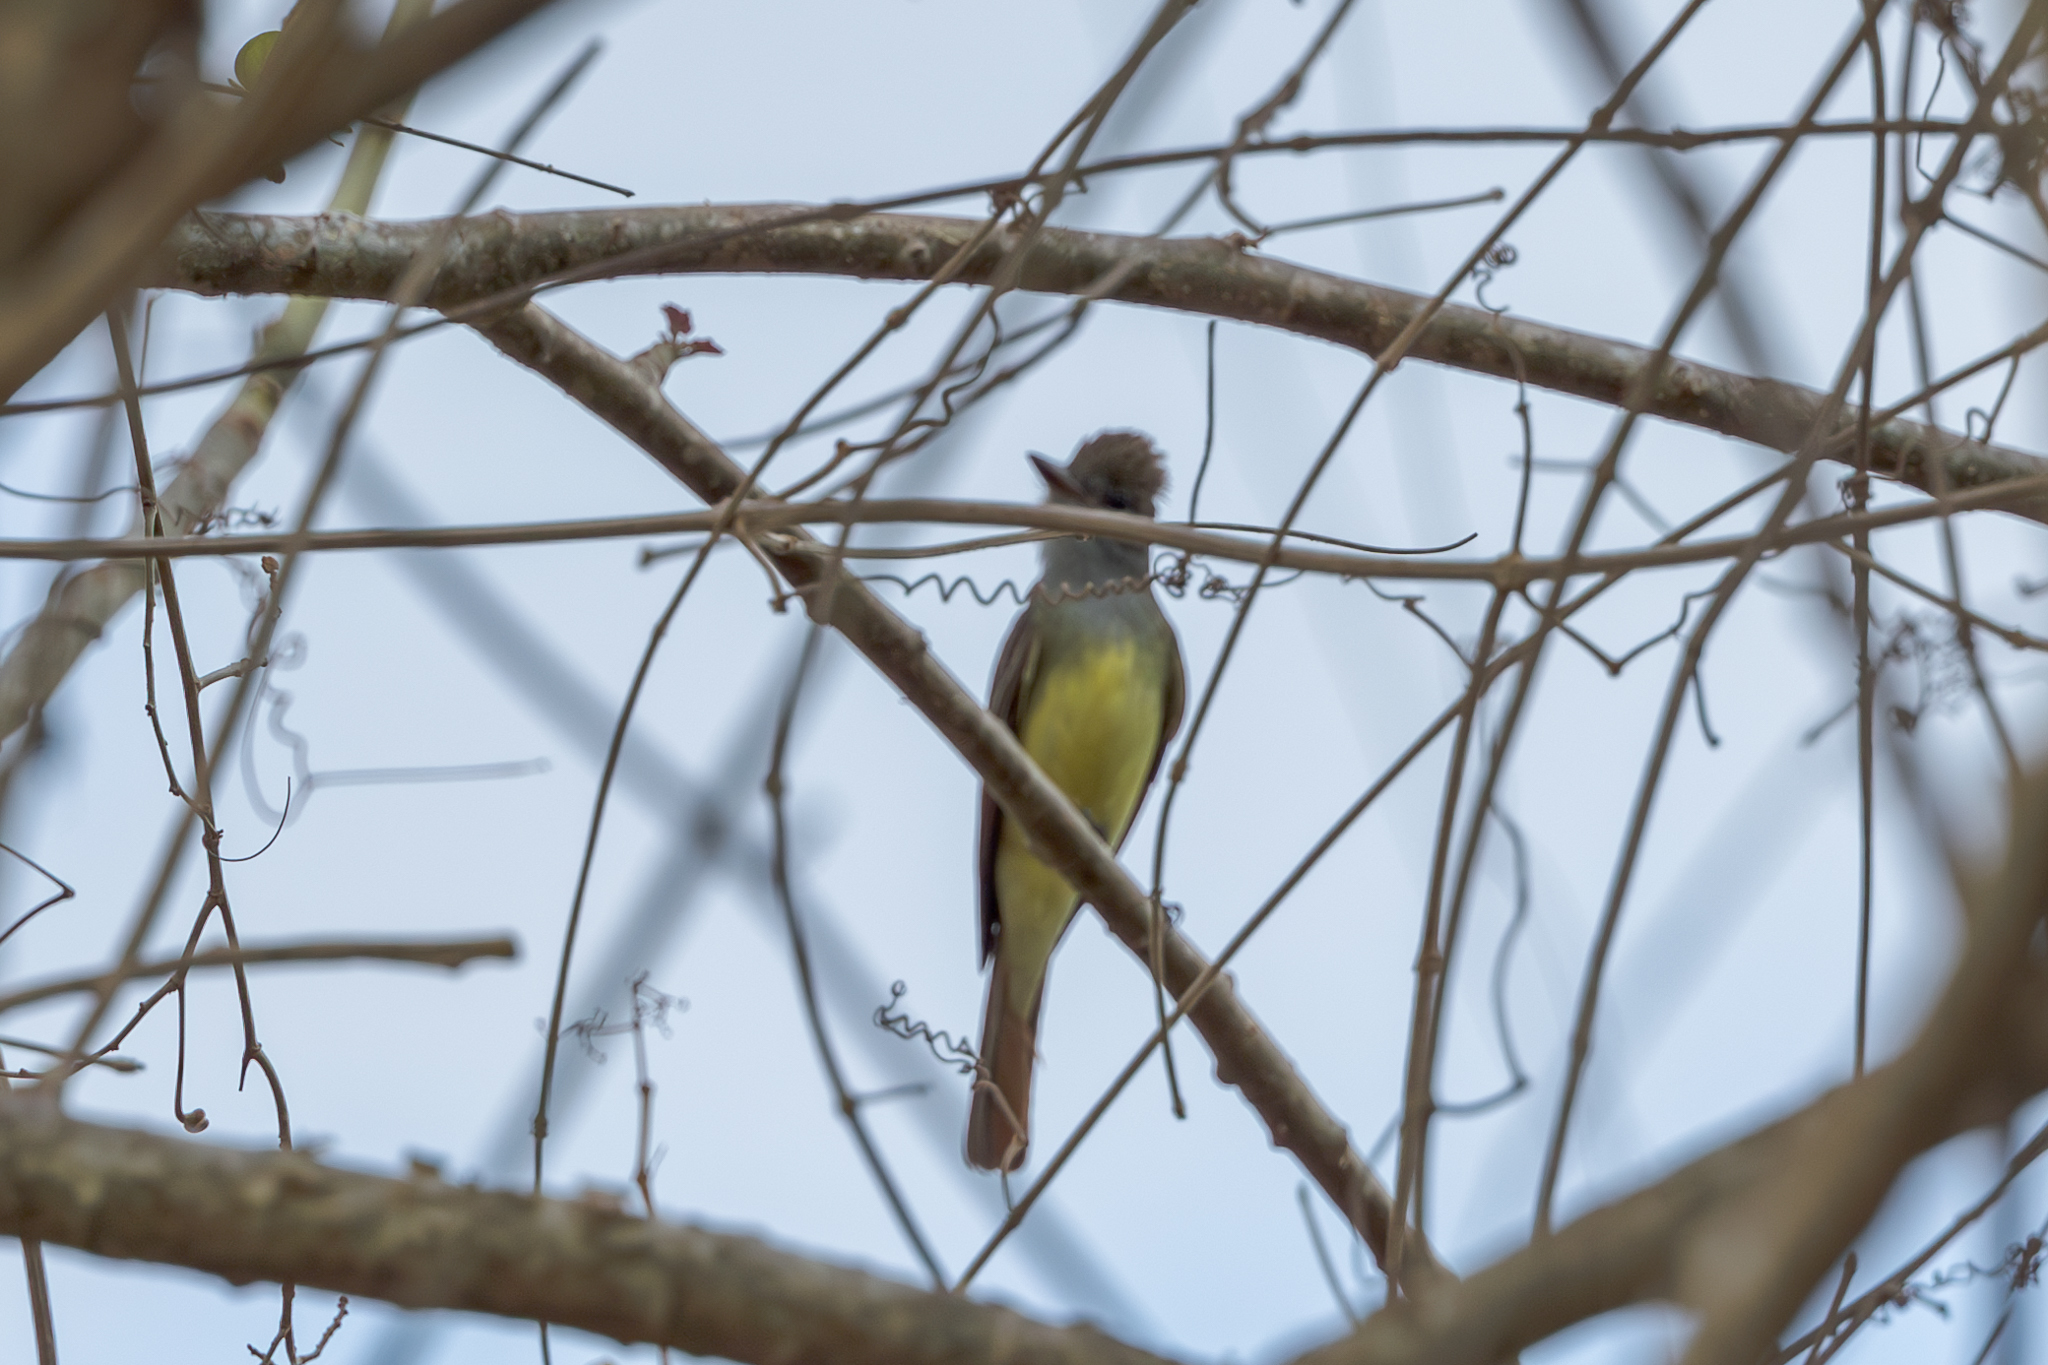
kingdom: Animalia
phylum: Chordata
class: Aves
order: Passeriformes
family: Tyrannidae
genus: Myiarchus
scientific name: Myiarchus crinitus
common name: Great crested flycatcher
